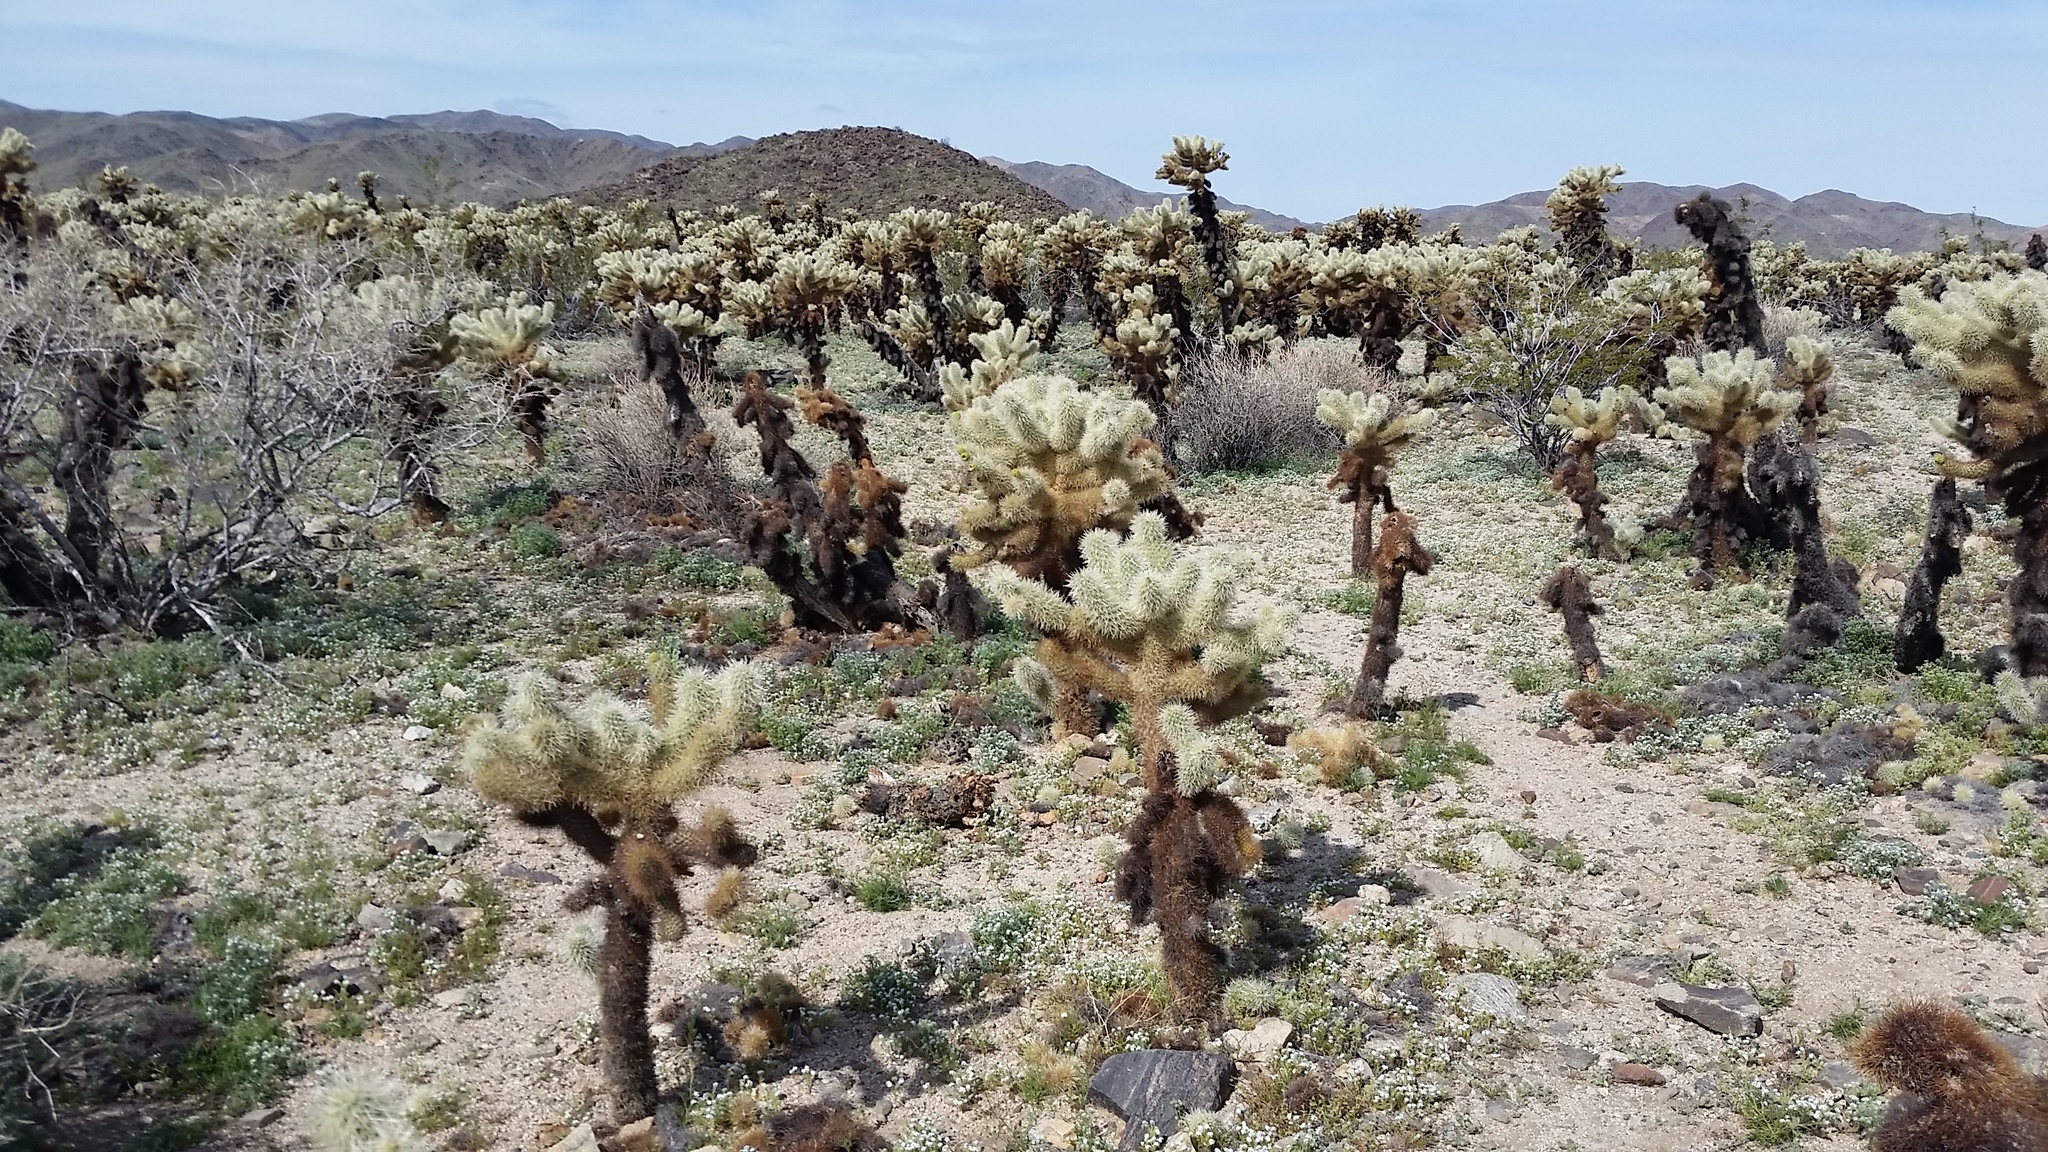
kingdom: Plantae
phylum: Tracheophyta
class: Magnoliopsida
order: Caryophyllales
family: Cactaceae
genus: Cylindropuntia
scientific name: Cylindropuntia fosbergii
